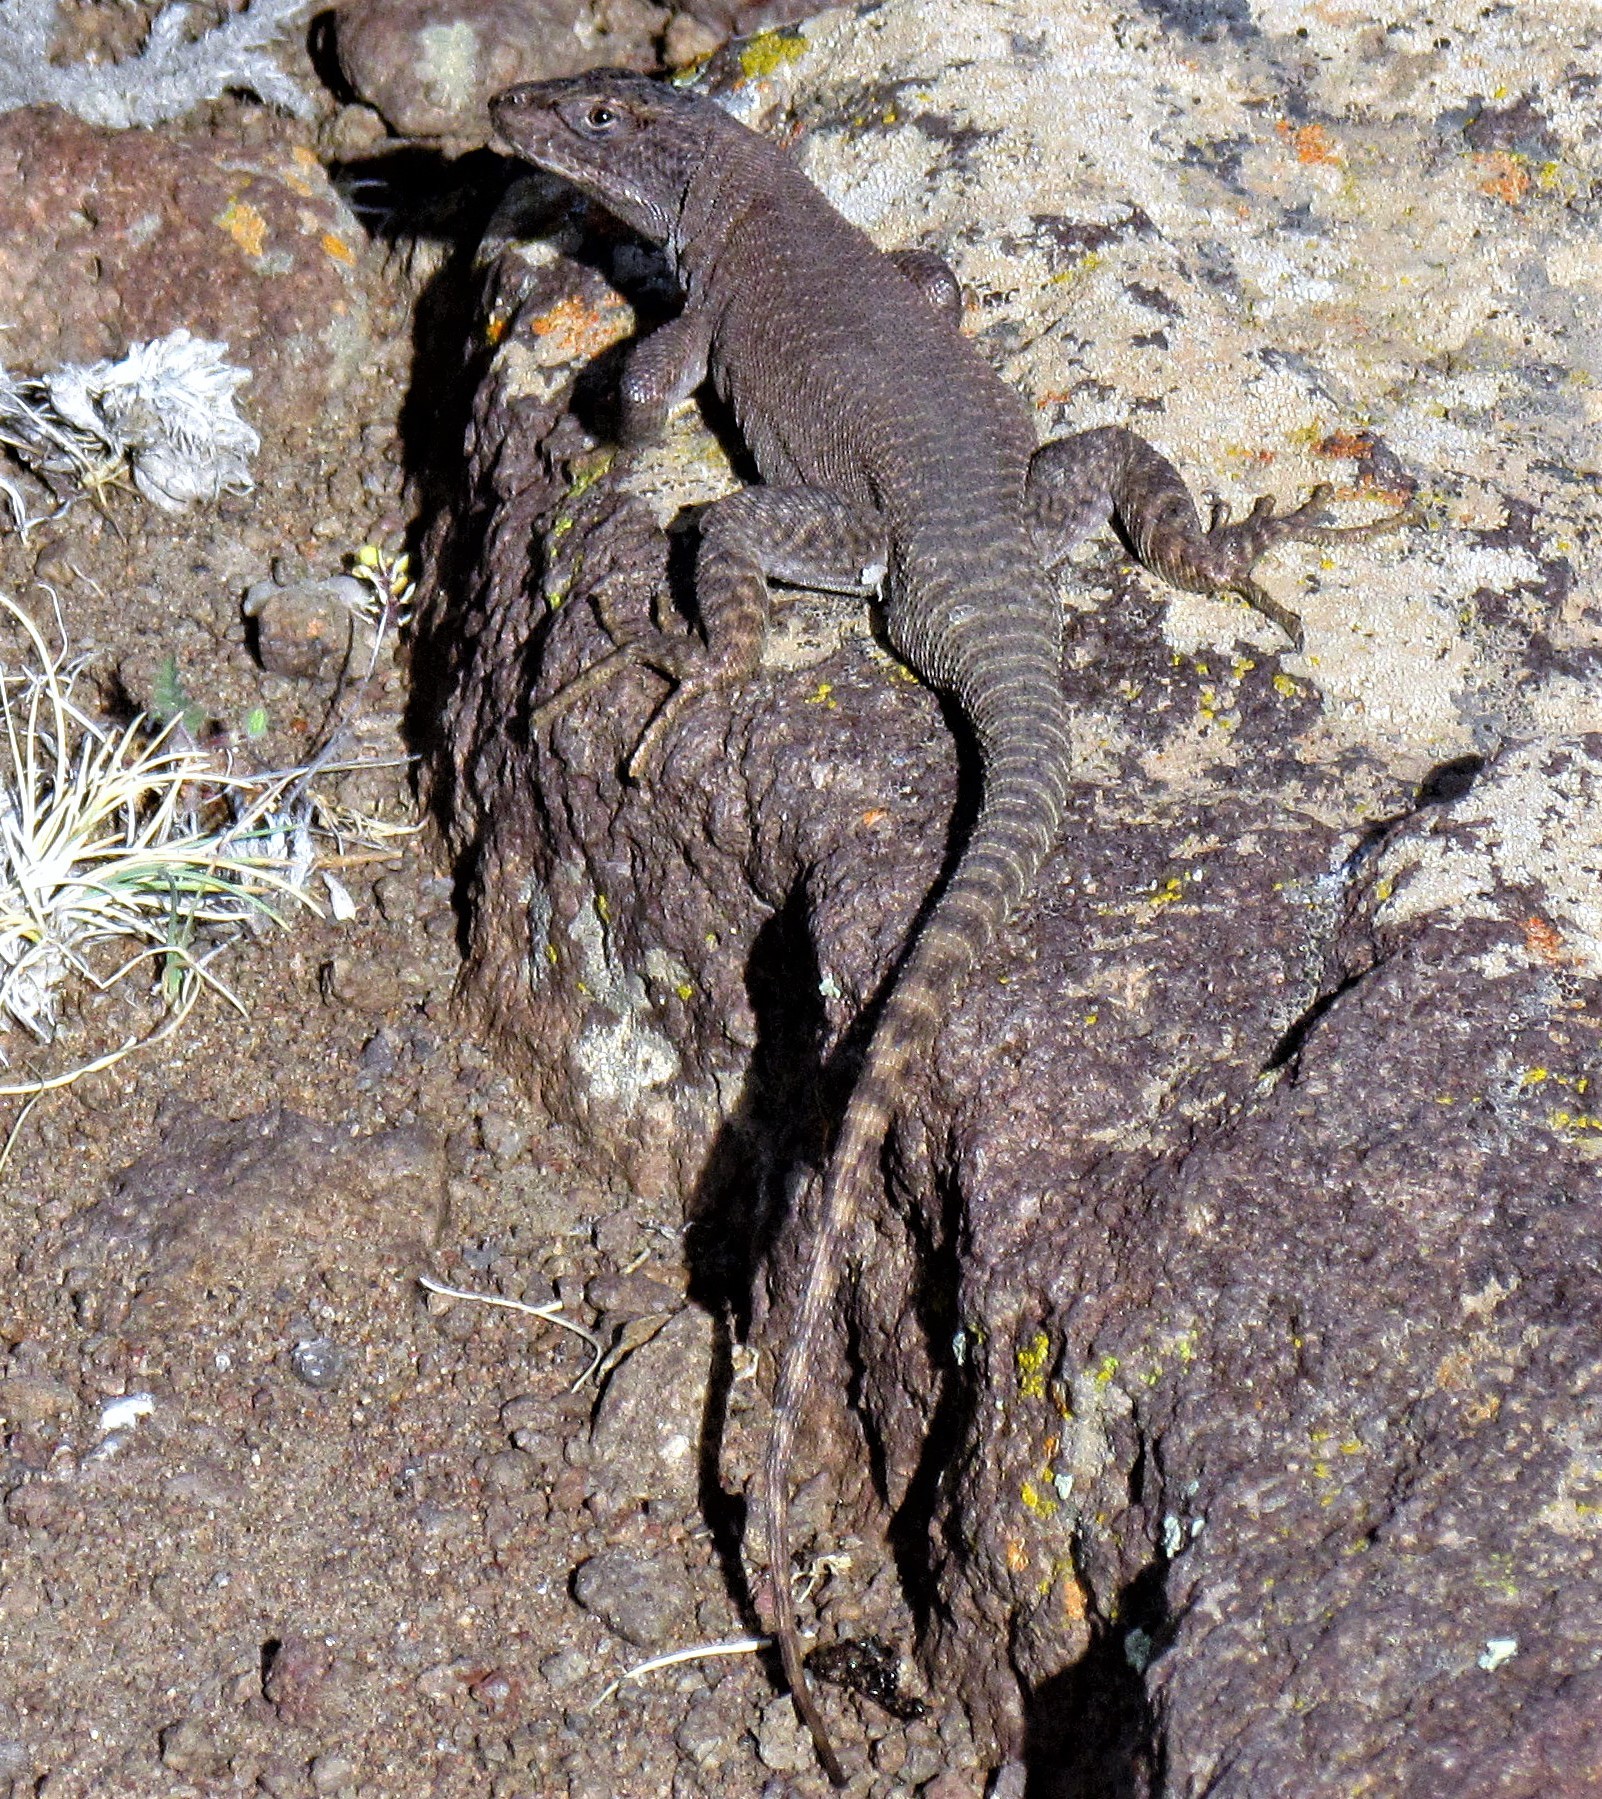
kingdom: Animalia
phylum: Chordata
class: Squamata
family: Liolaemidae
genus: Liolaemus
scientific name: Liolaemus petrophilus
